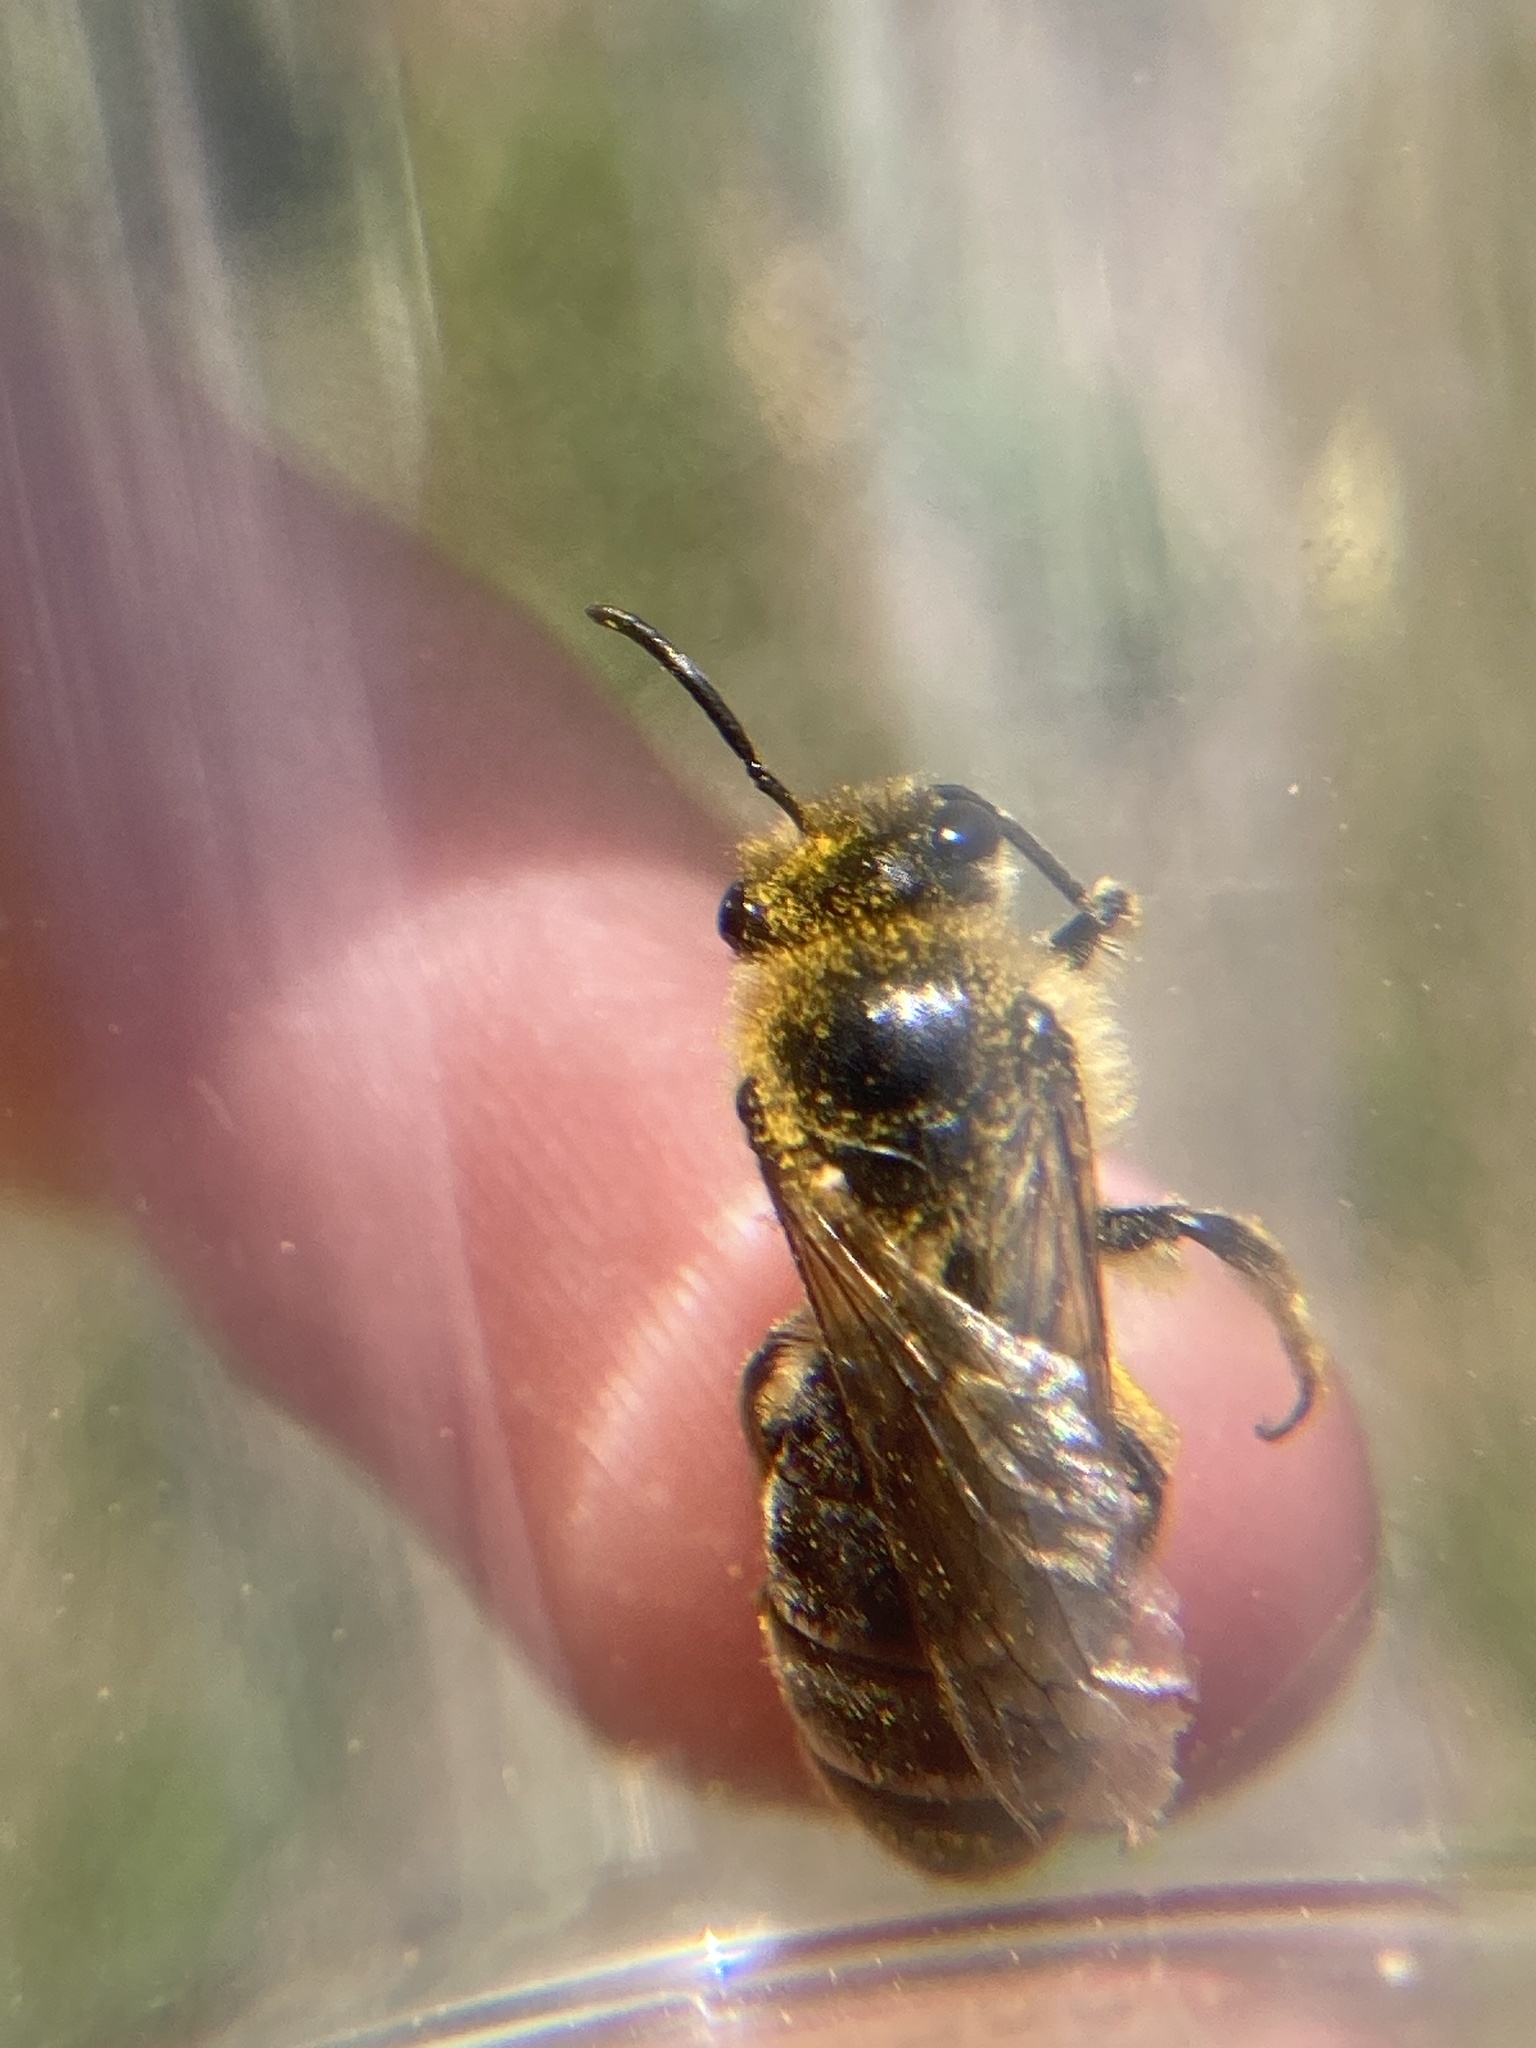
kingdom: Animalia
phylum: Arthropoda
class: Insecta
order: Hymenoptera
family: Colletidae
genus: Colletes
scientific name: Colletes inaequalis
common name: Unequal cellophane bee
